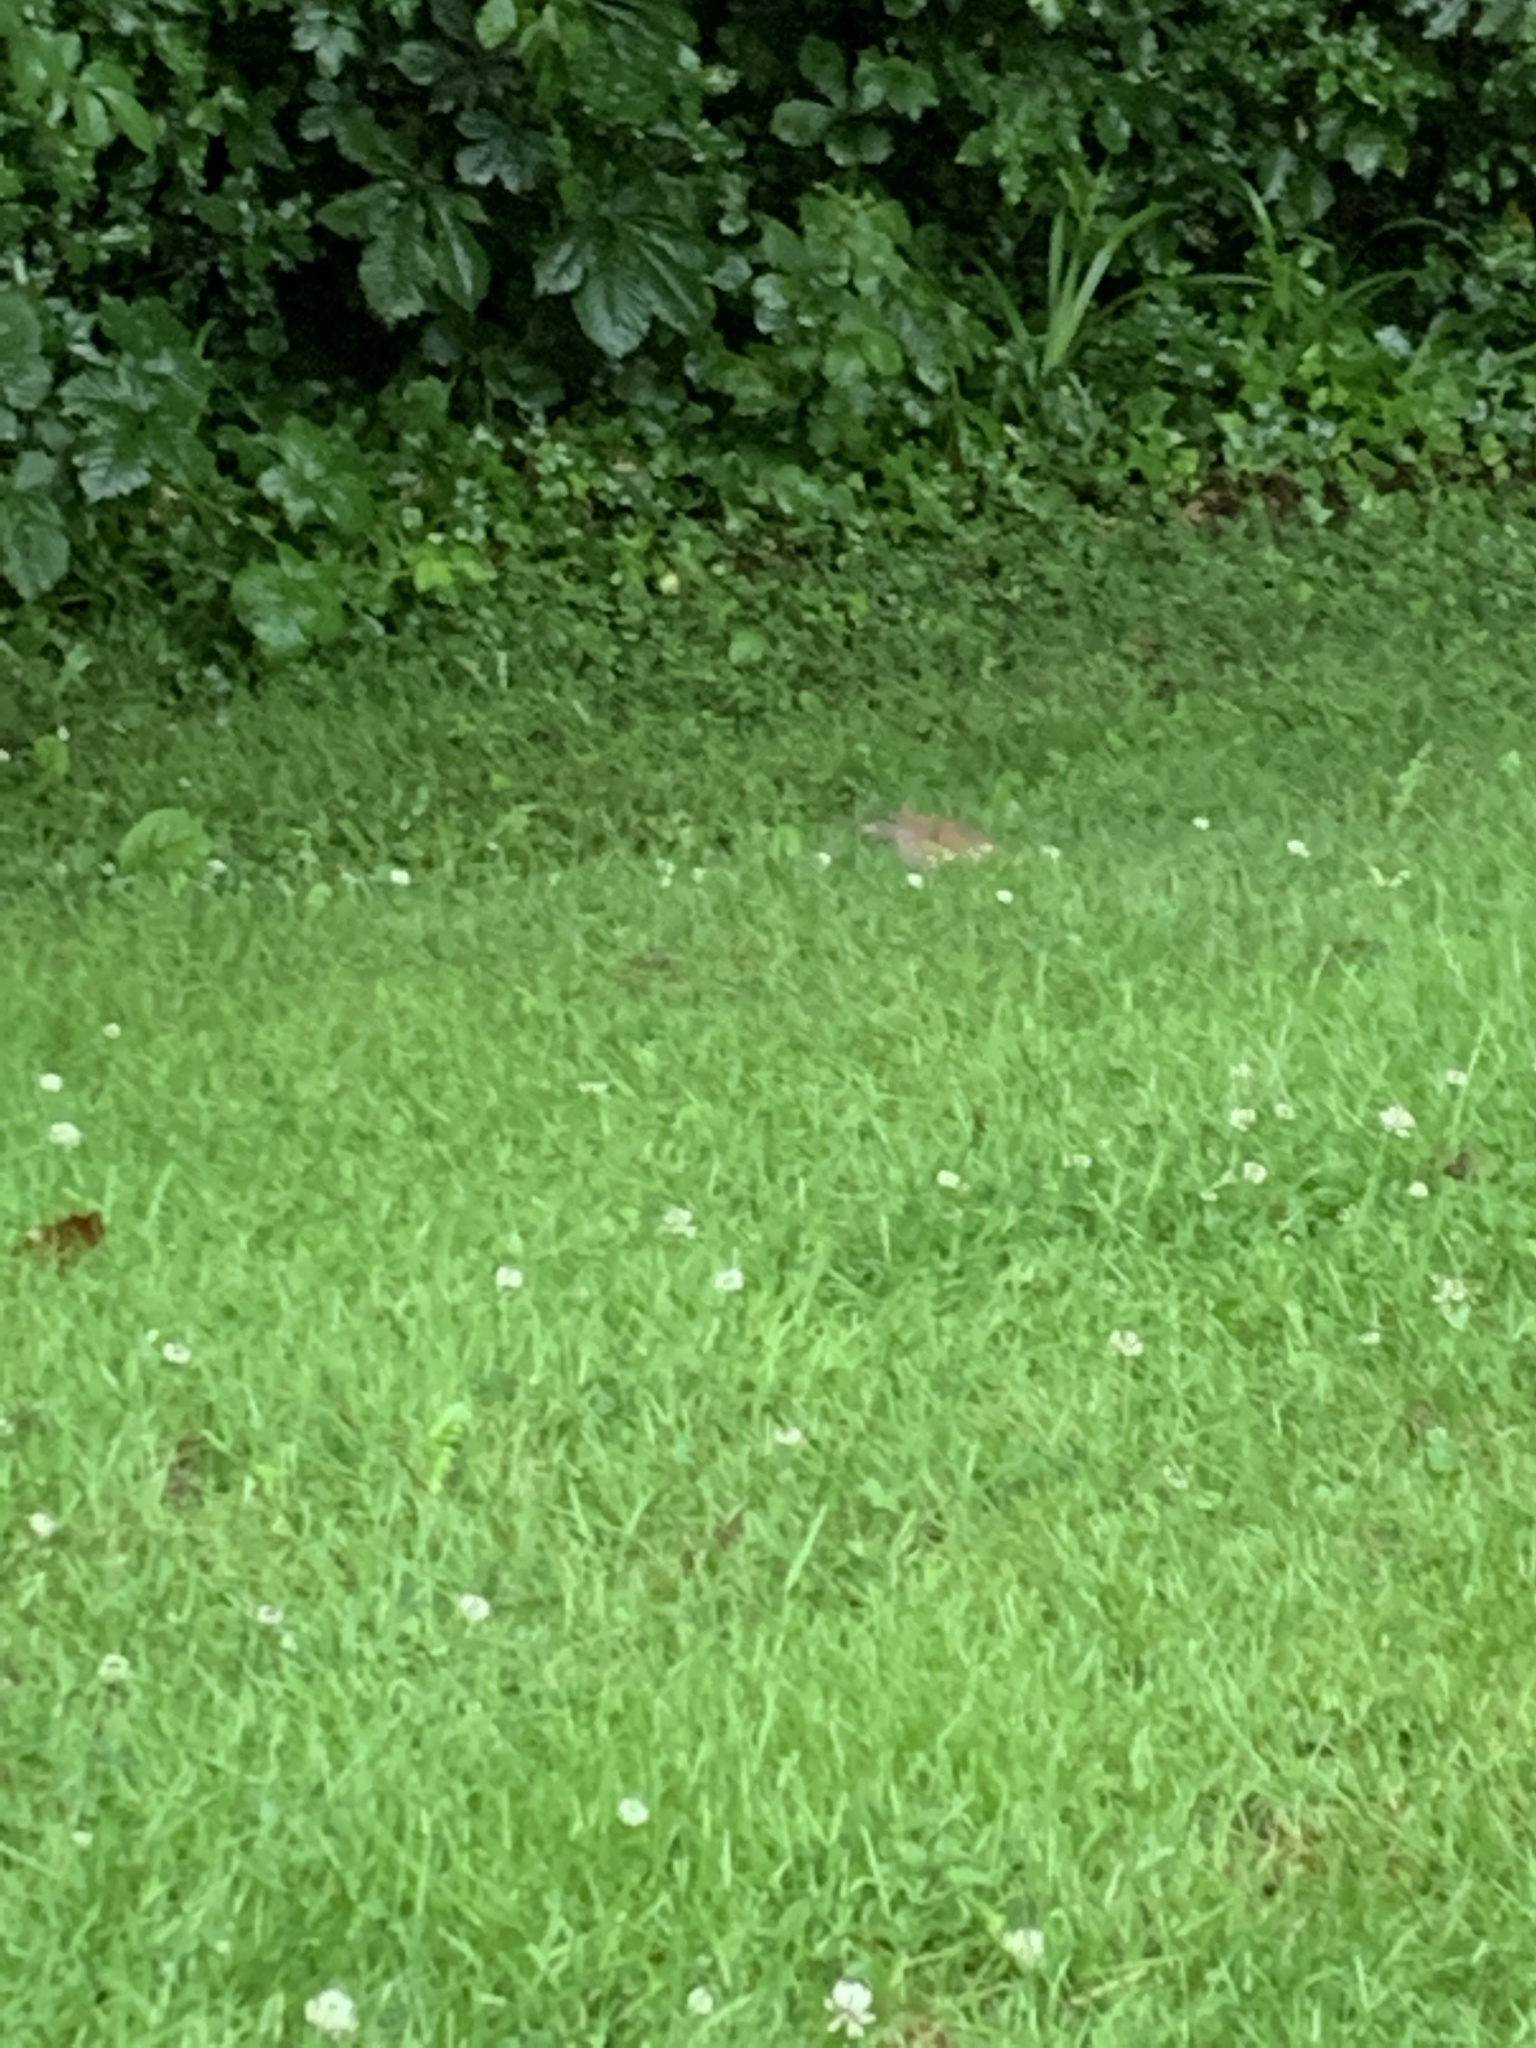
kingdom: Animalia
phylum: Chordata
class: Aves
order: Passeriformes
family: Turdidae
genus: Turdus
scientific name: Turdus philomelos
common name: Song thrush
